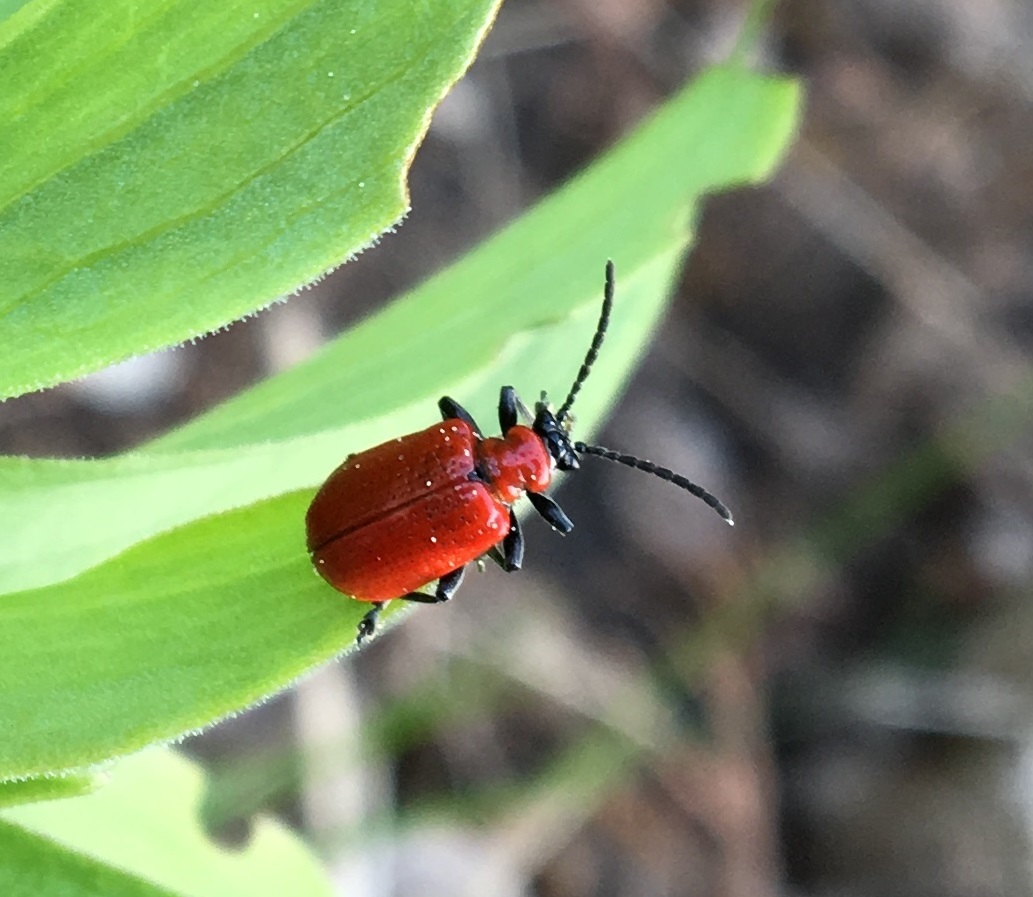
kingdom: Animalia
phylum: Arthropoda
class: Insecta
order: Coleoptera
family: Chrysomelidae
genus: Lilioceris
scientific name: Lilioceris lilii
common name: Lily beetle
